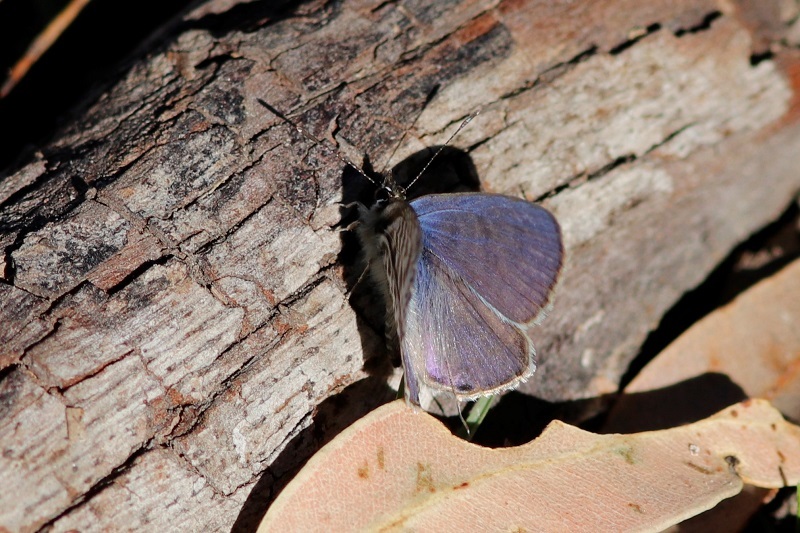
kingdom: Animalia
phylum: Arthropoda
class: Insecta
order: Lepidoptera
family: Lycaenidae
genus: Leptotes
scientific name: Leptotes
